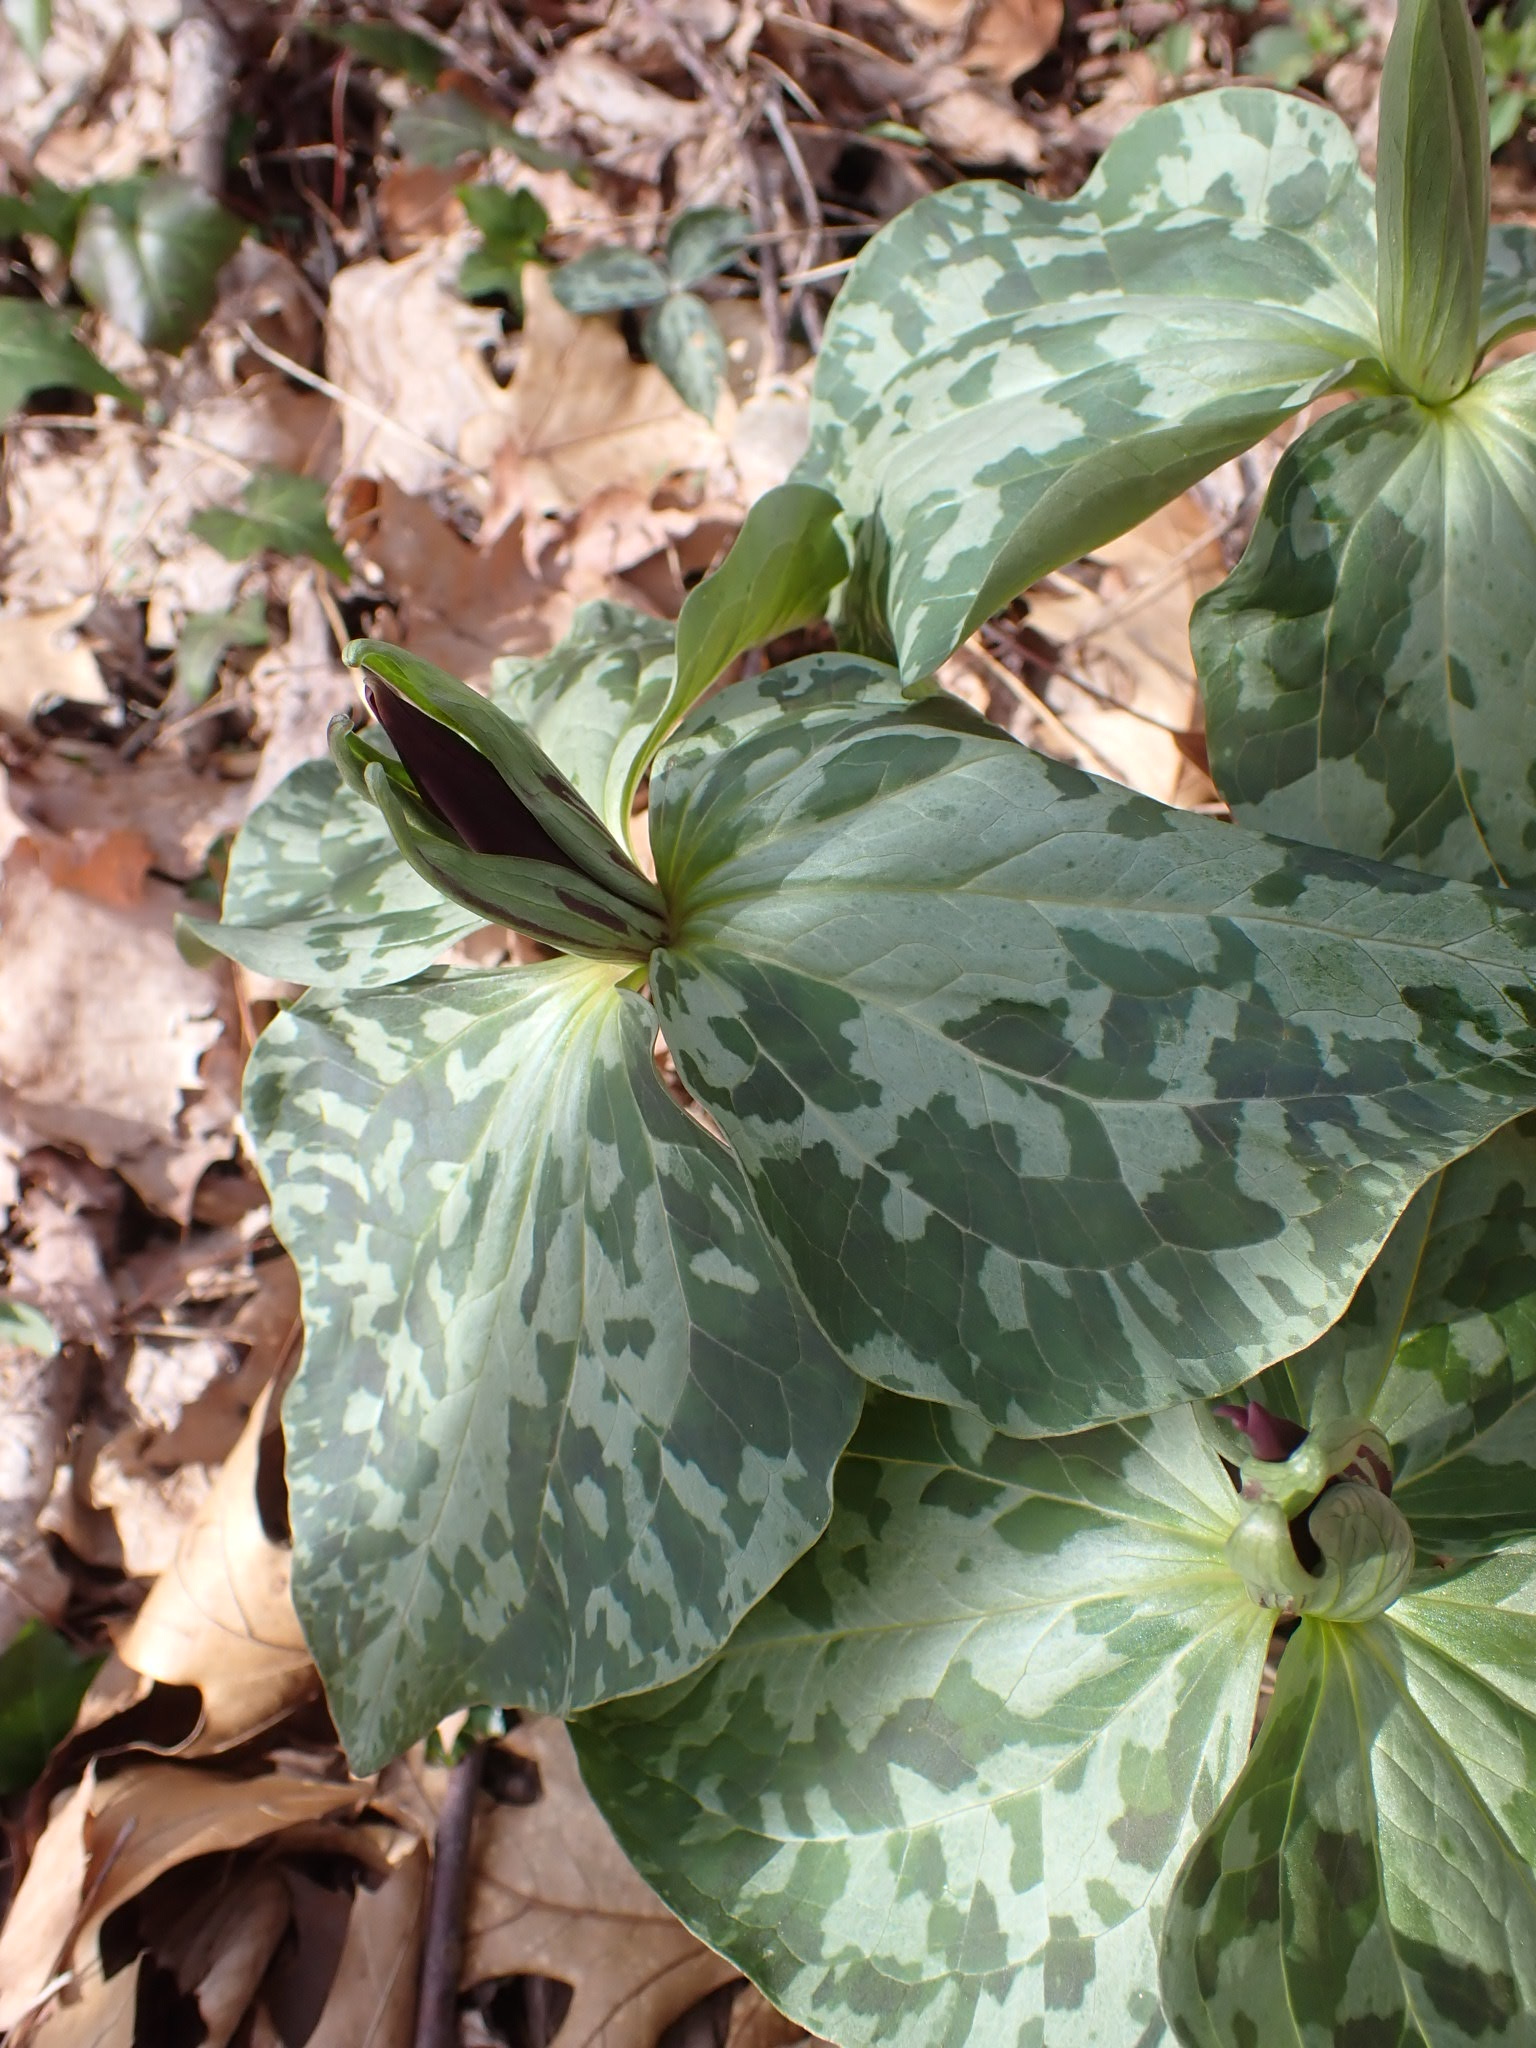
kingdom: Plantae
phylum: Tracheophyta
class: Liliopsida
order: Liliales
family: Melanthiaceae
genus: Trillium
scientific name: Trillium cuneatum
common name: Cuneate trillium
